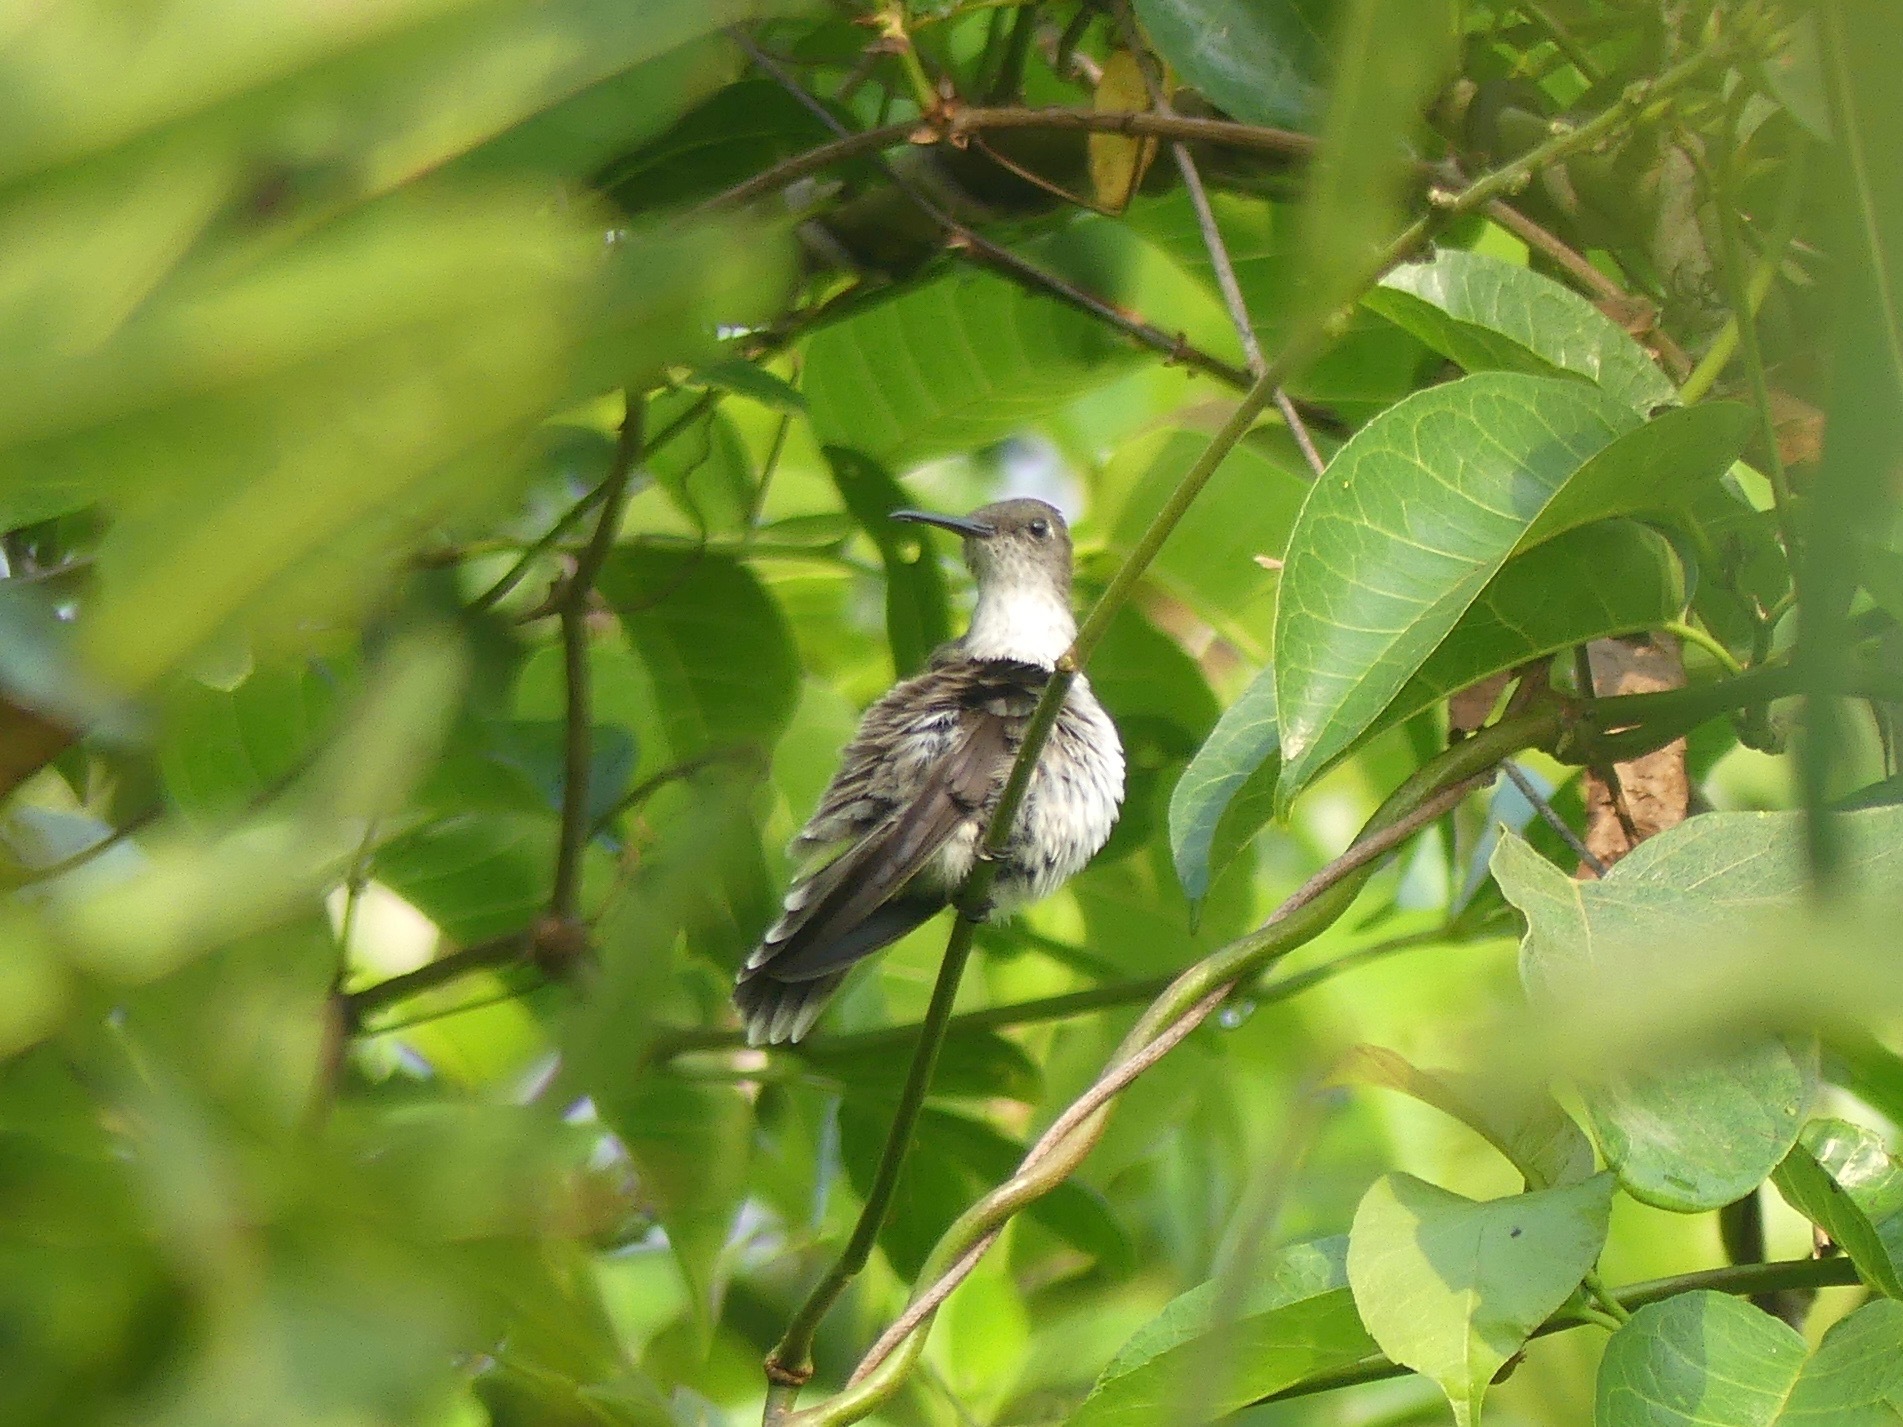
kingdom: Animalia
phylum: Chordata
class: Aves
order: Apodiformes
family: Trochilidae
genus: Talaphorus
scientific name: Talaphorus chlorocercus
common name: Olive-spotted hummingbird
